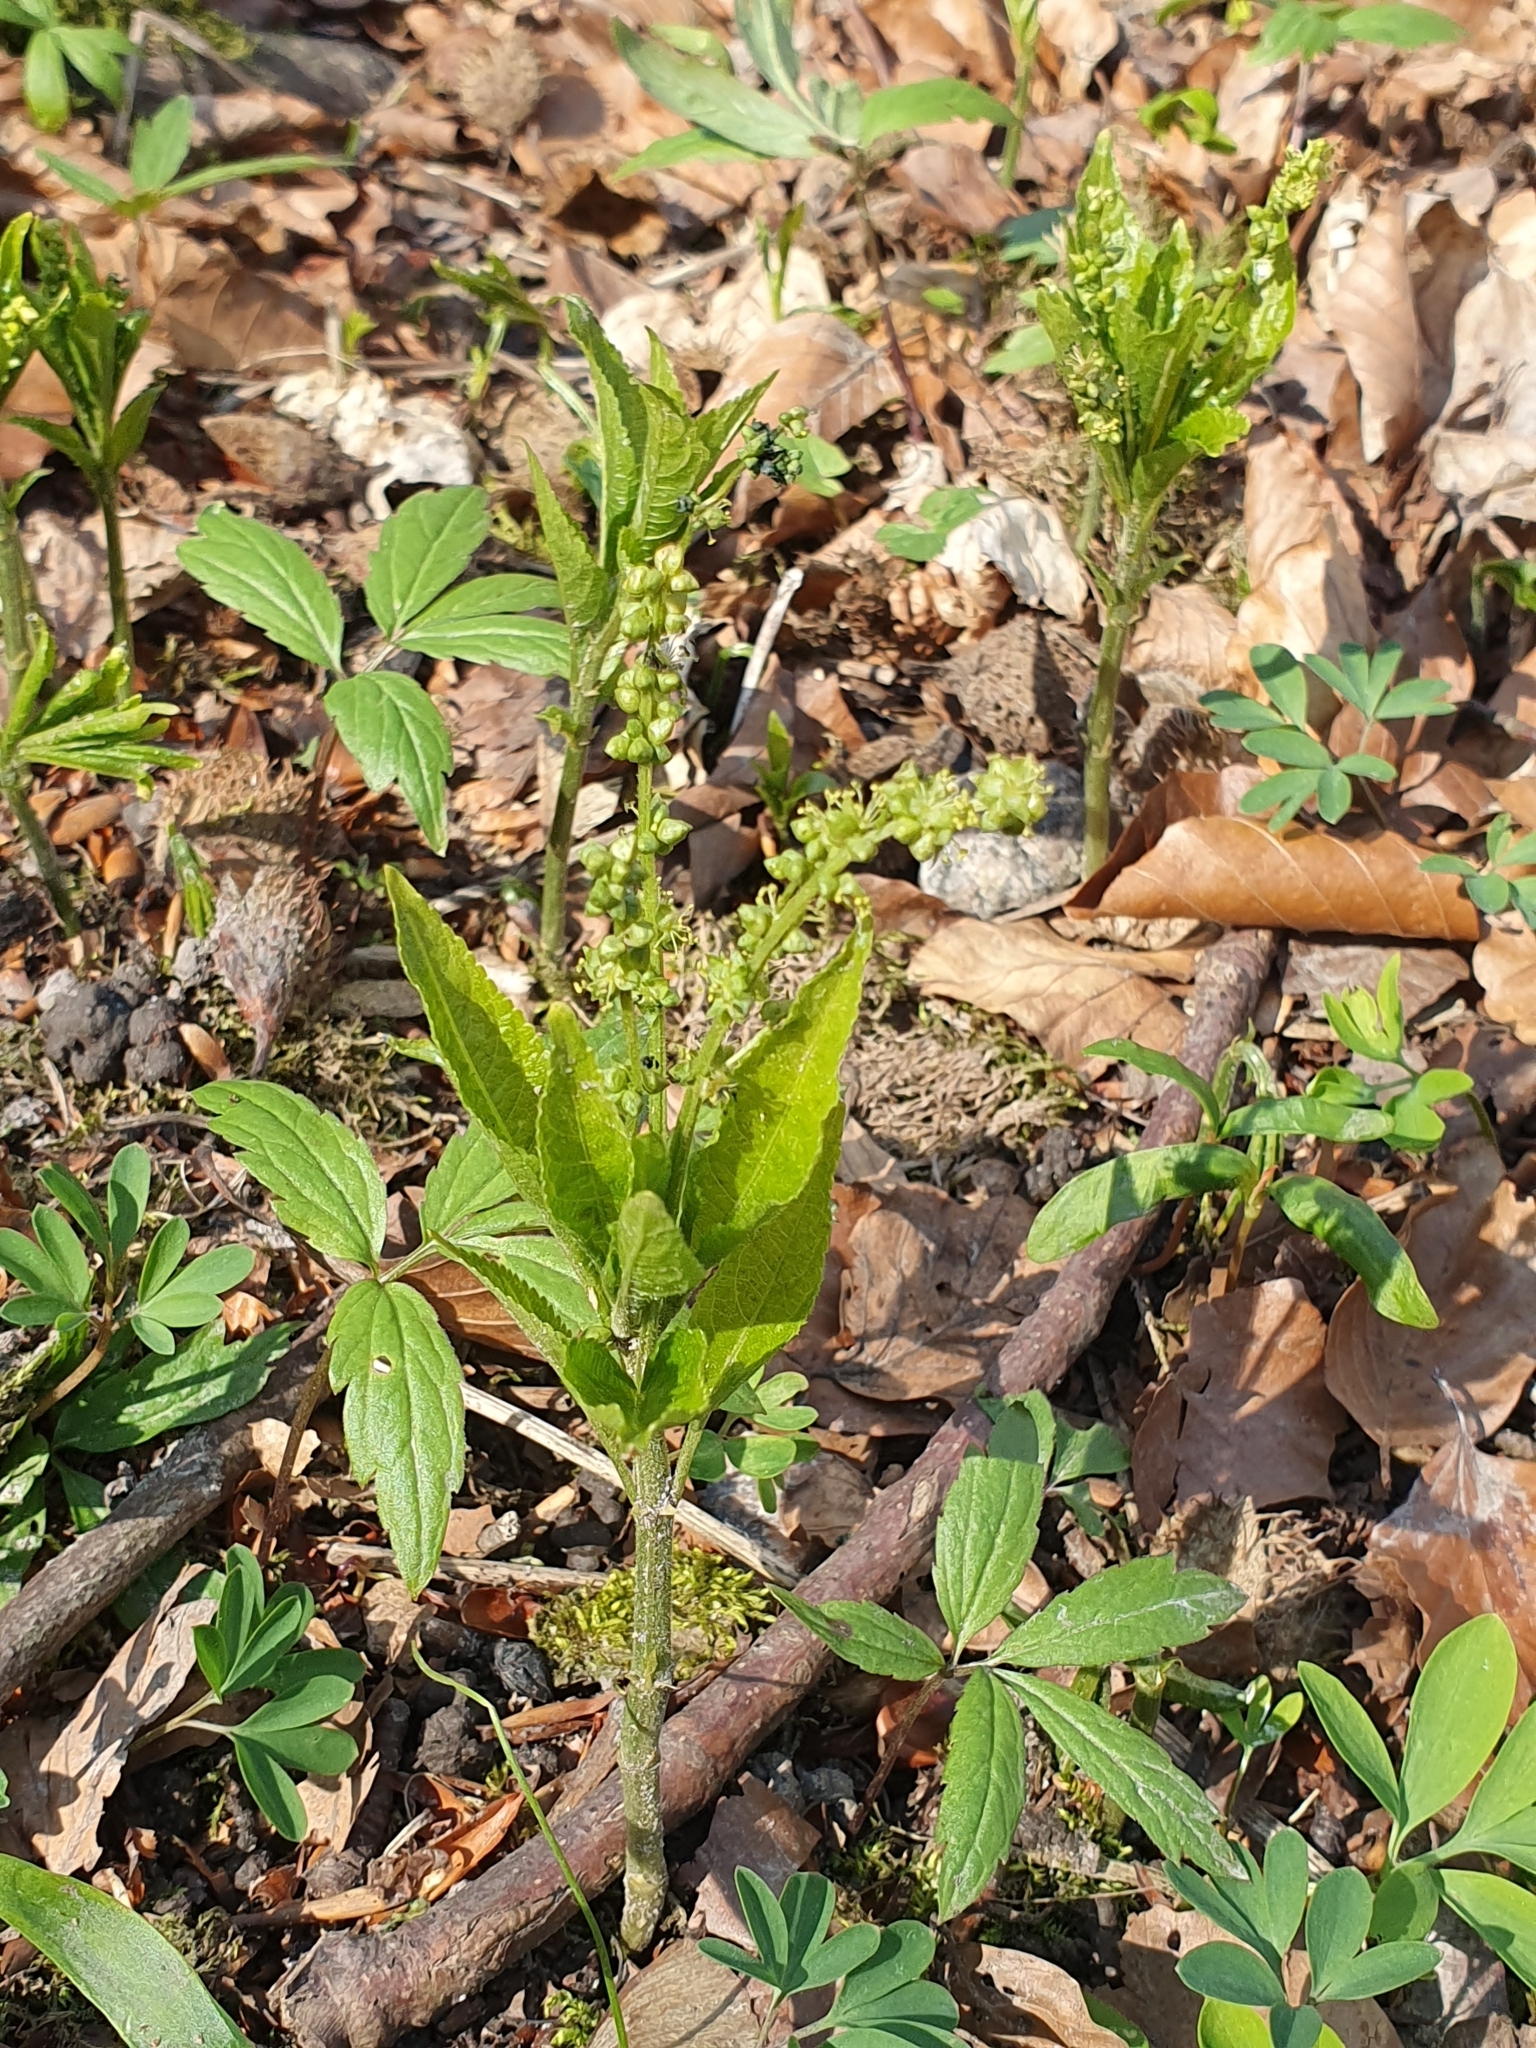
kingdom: Plantae
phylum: Tracheophyta
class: Magnoliopsida
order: Malpighiales
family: Euphorbiaceae
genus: Mercurialis
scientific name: Mercurialis perennis
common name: Dog mercury
